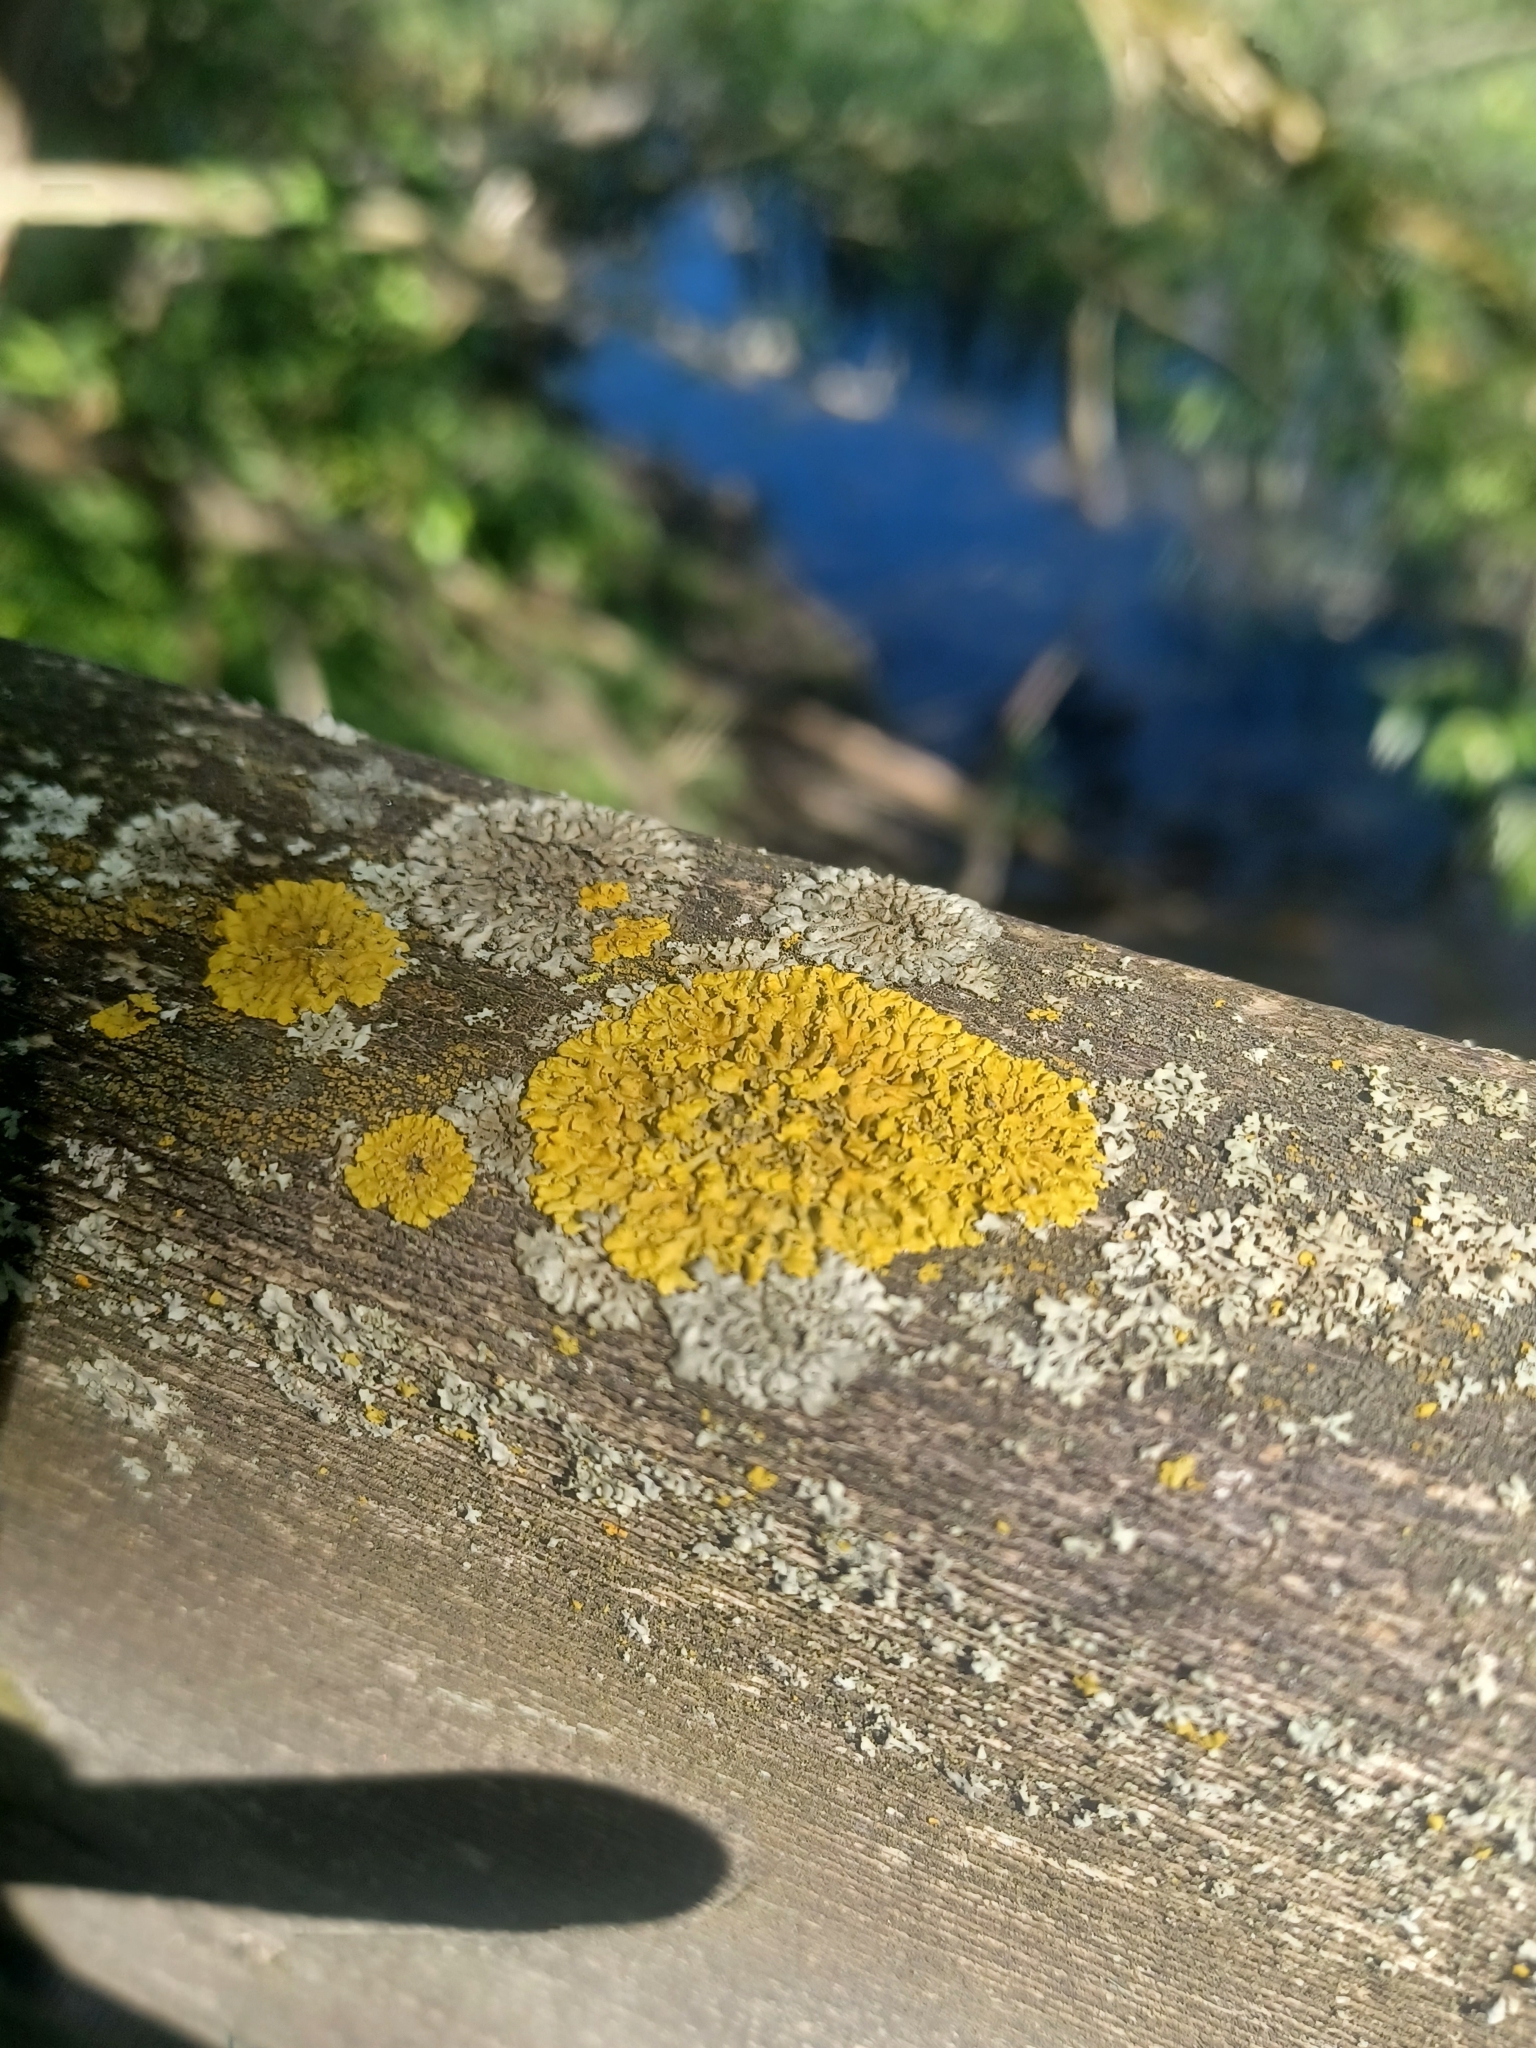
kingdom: Fungi
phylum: Ascomycota
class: Candelariomycetes
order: Candelariales
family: Candelariaceae
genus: Candelaria
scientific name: Candelaria concolor
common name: Candleflame lichen
